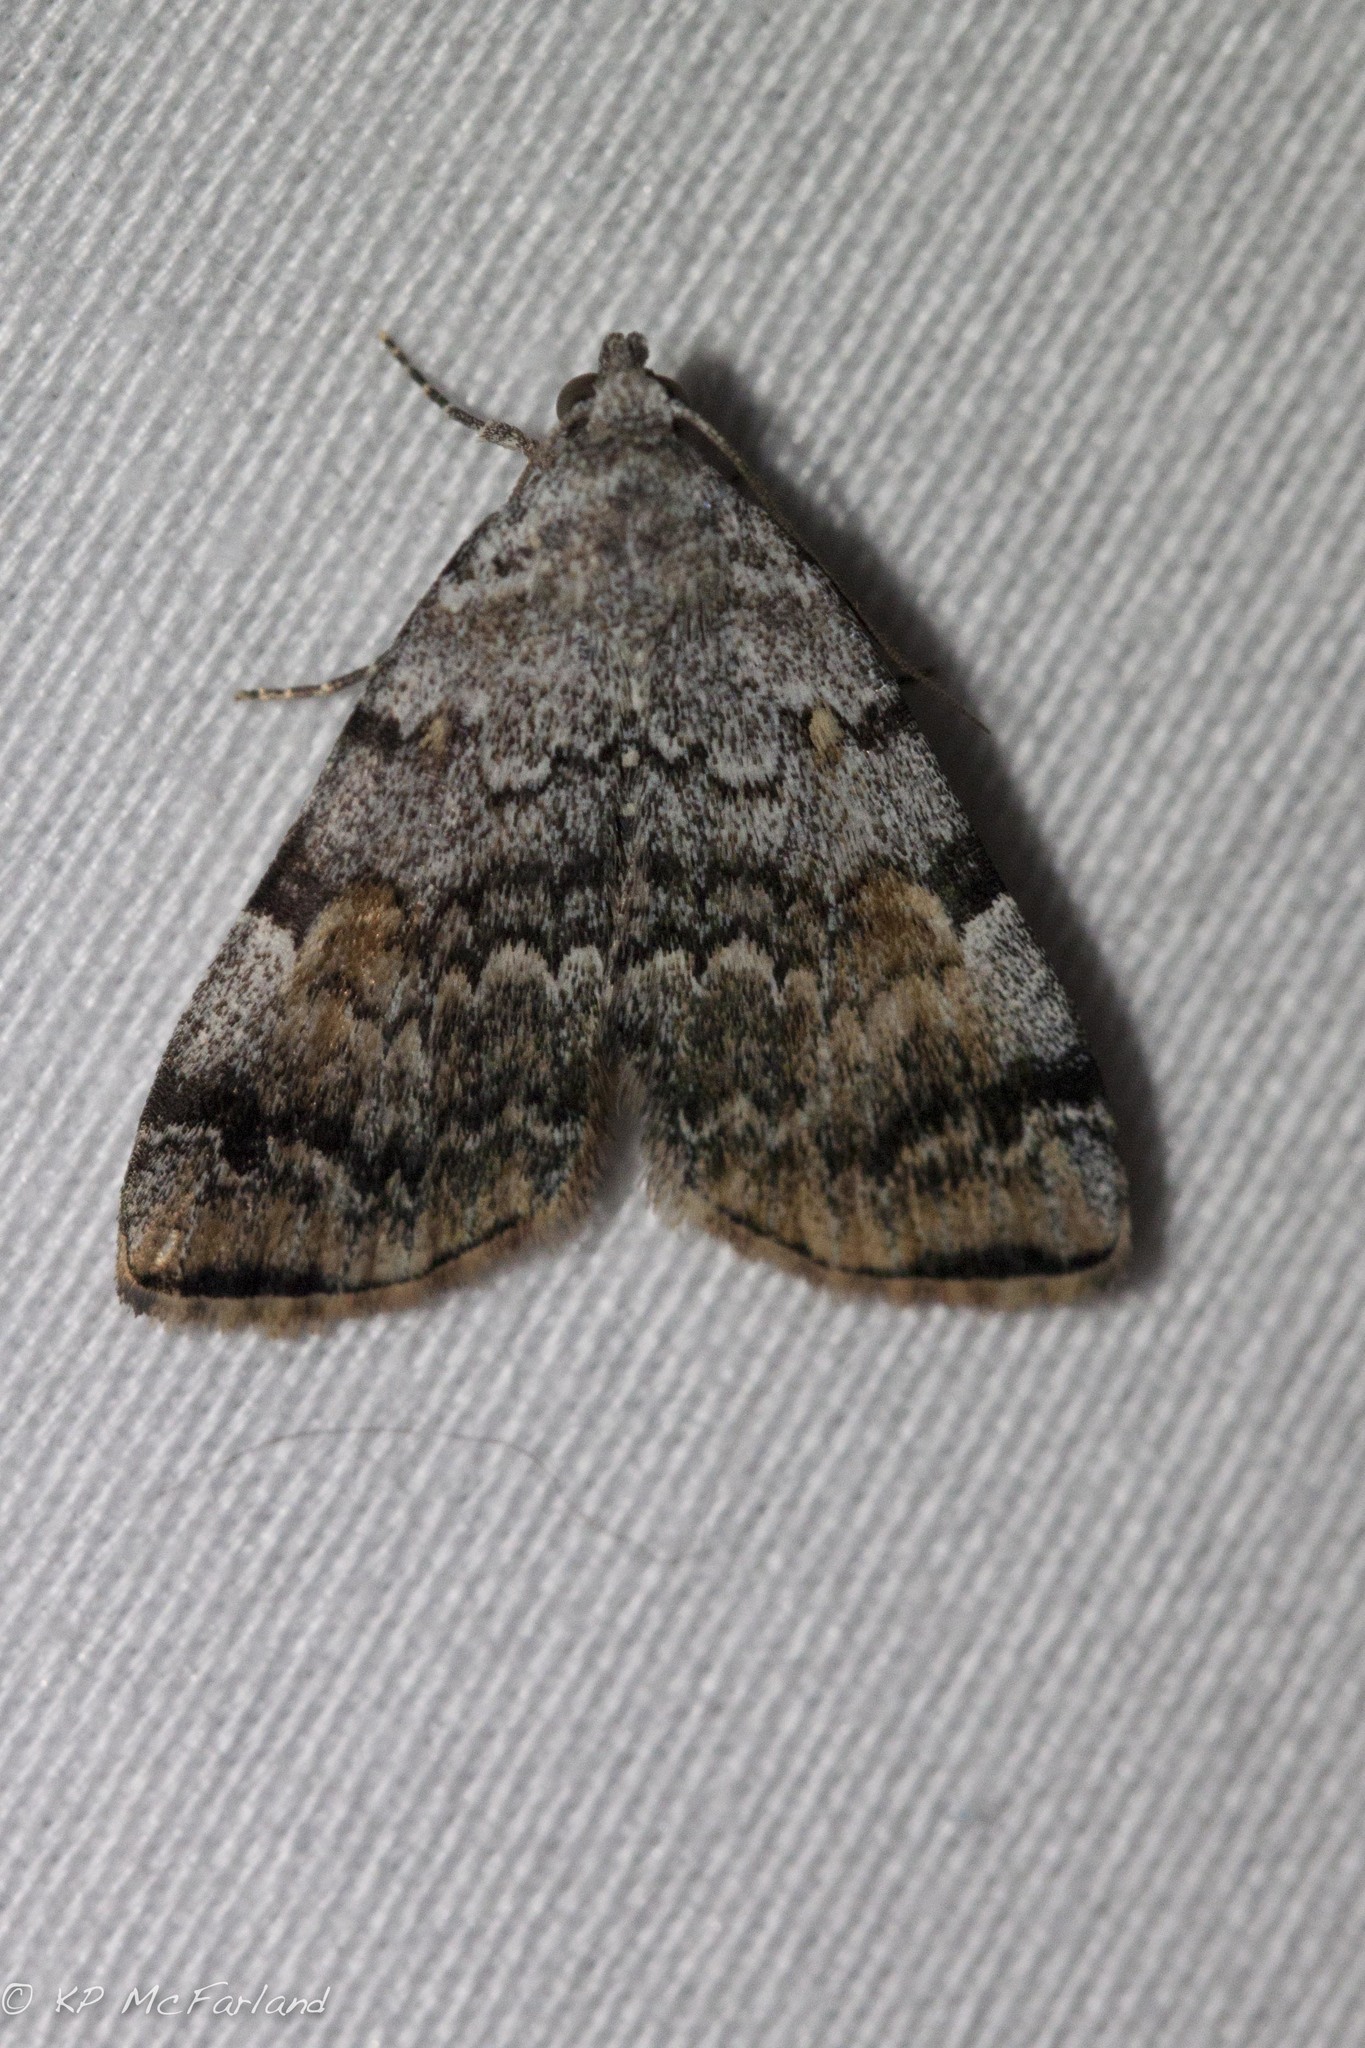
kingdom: Animalia
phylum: Arthropoda
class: Insecta
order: Lepidoptera
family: Erebidae
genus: Idia
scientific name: Idia americalis
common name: American idia moth
